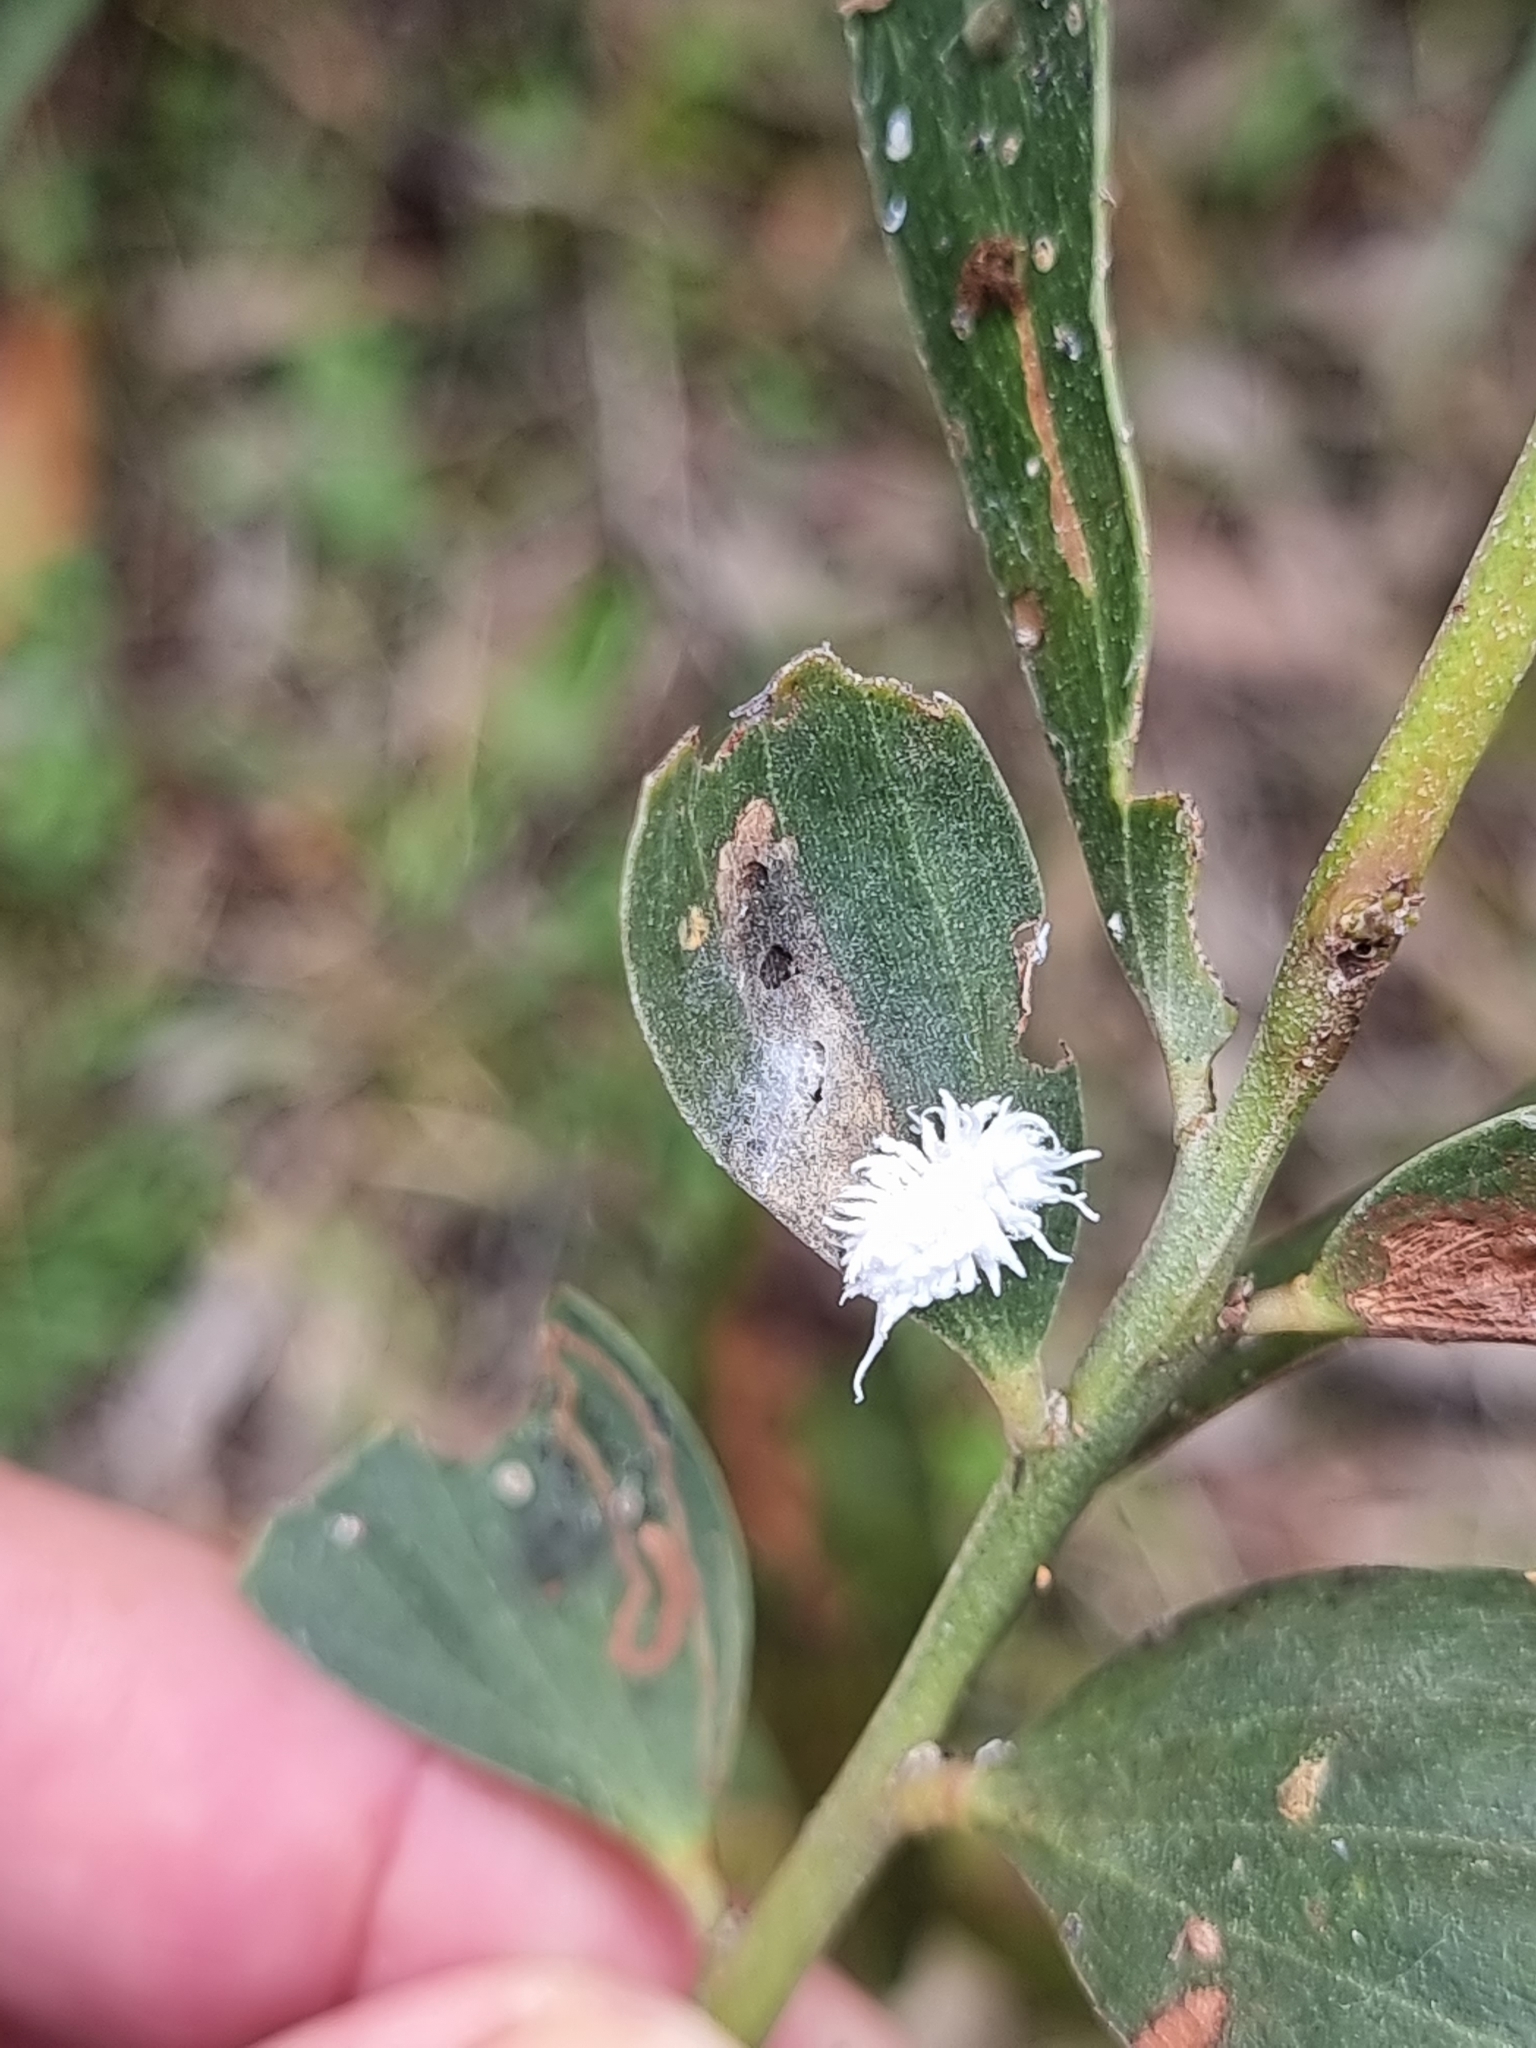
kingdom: Animalia
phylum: Arthropoda
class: Insecta
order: Coleoptera
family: Coccinellidae
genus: Cryptolaemus
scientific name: Cryptolaemus montrouzieri
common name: Mealybug destroyer
